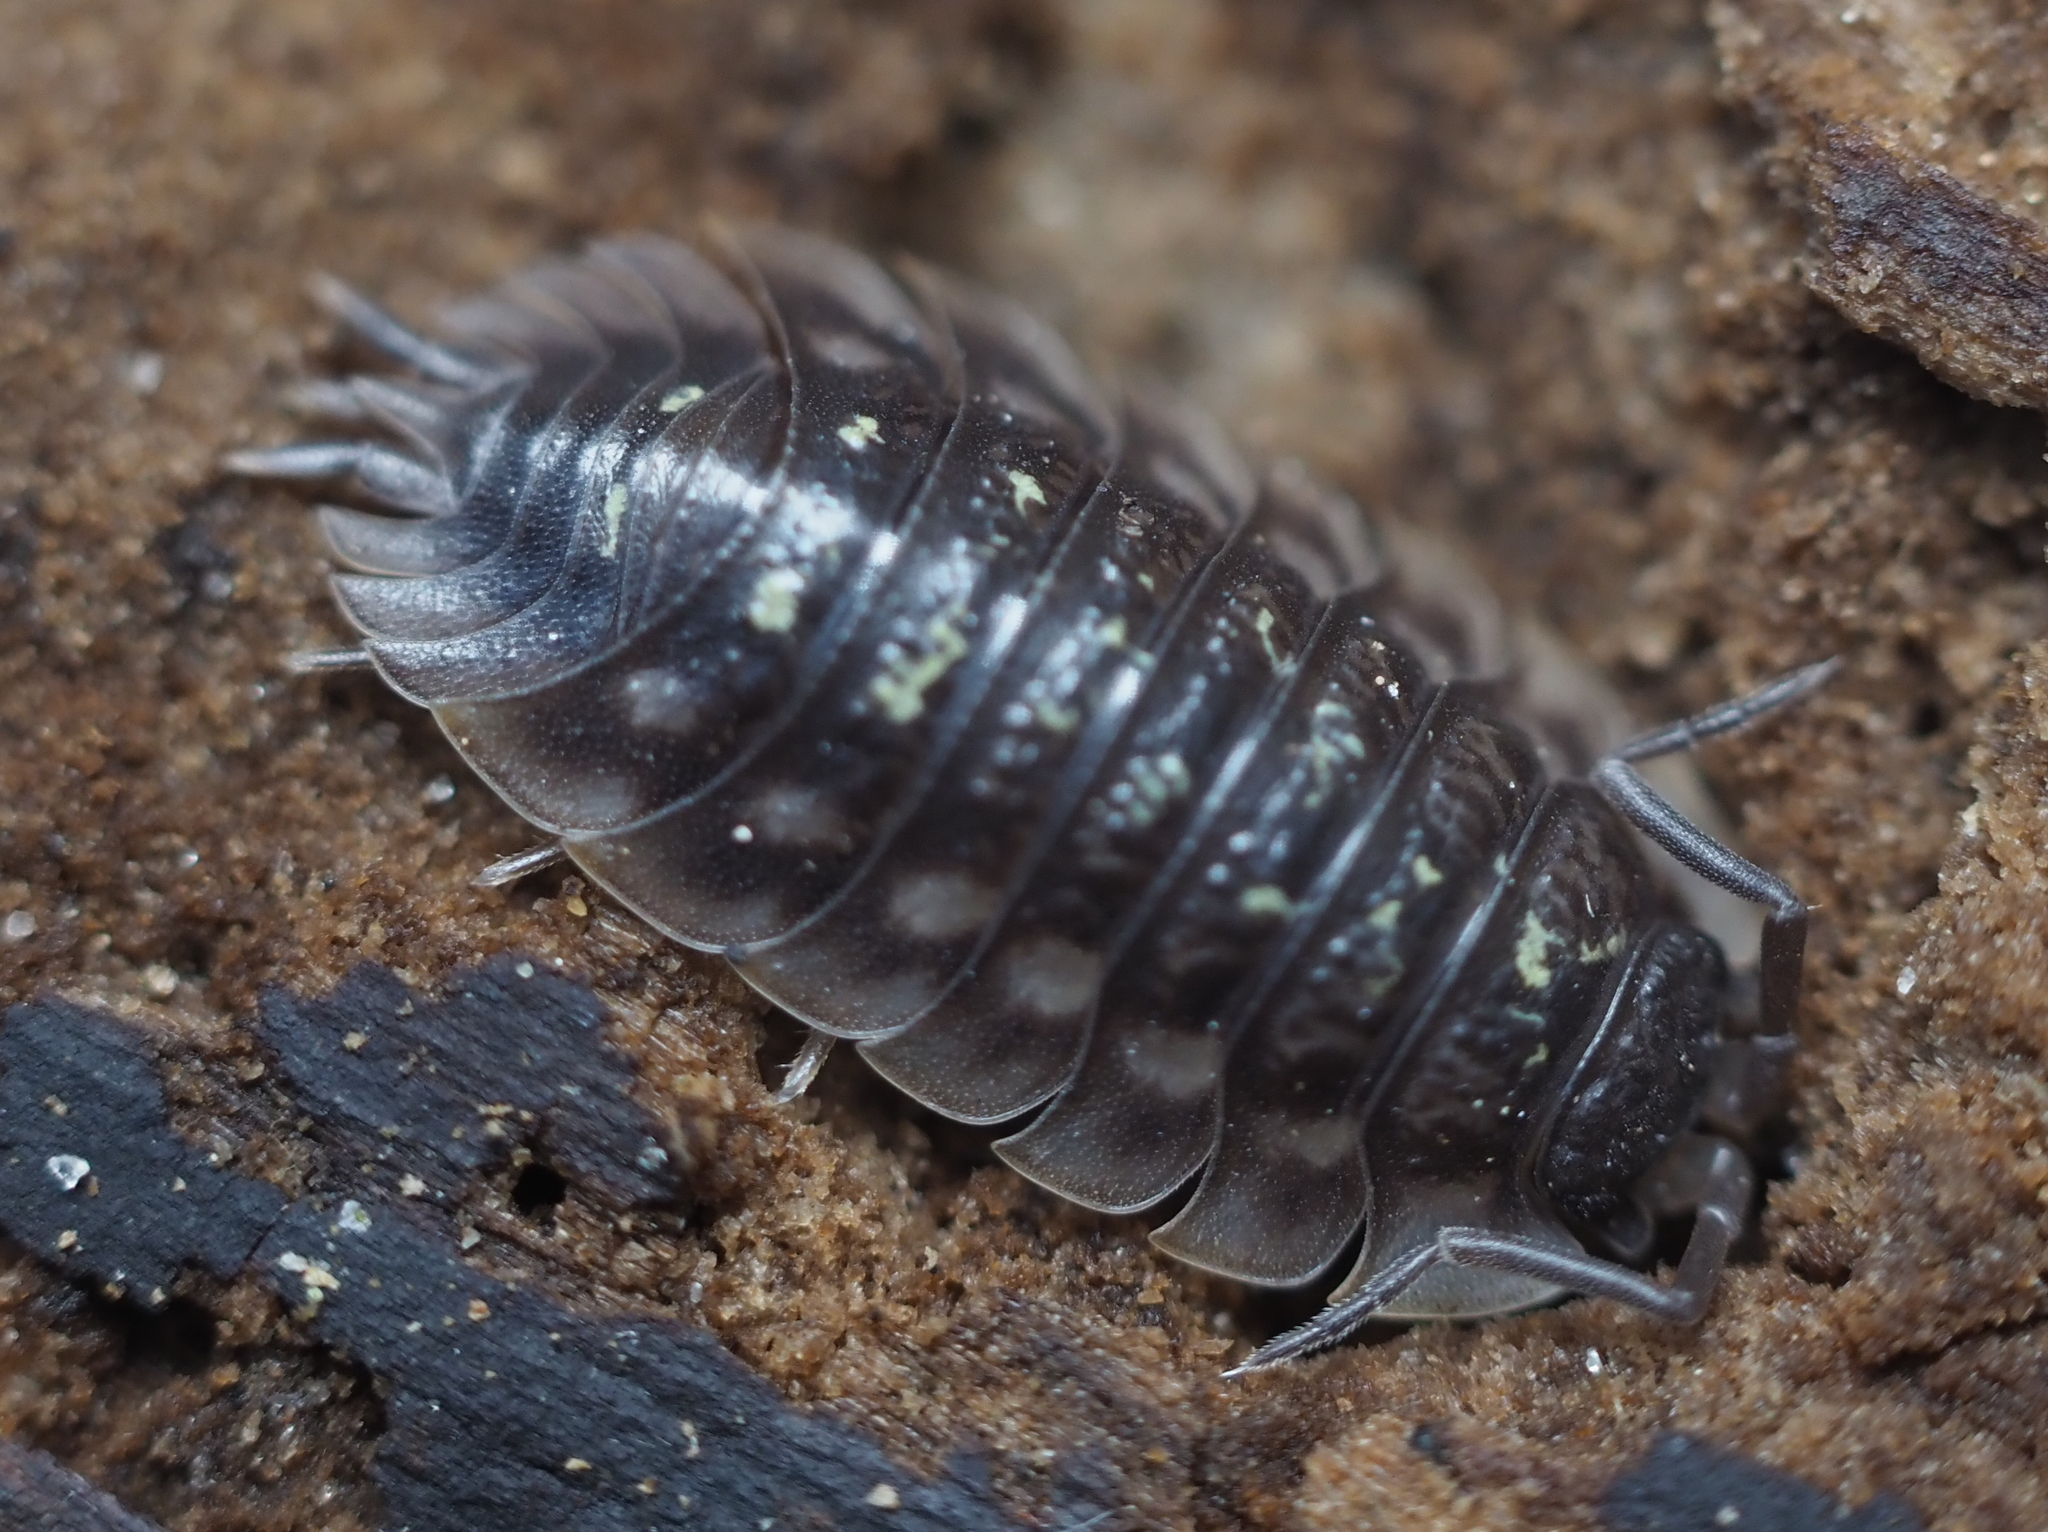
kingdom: Animalia
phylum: Arthropoda
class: Malacostraca
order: Isopoda
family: Oniscidae
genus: Oniscus
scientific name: Oniscus asellus
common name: Common shiny woodlouse
